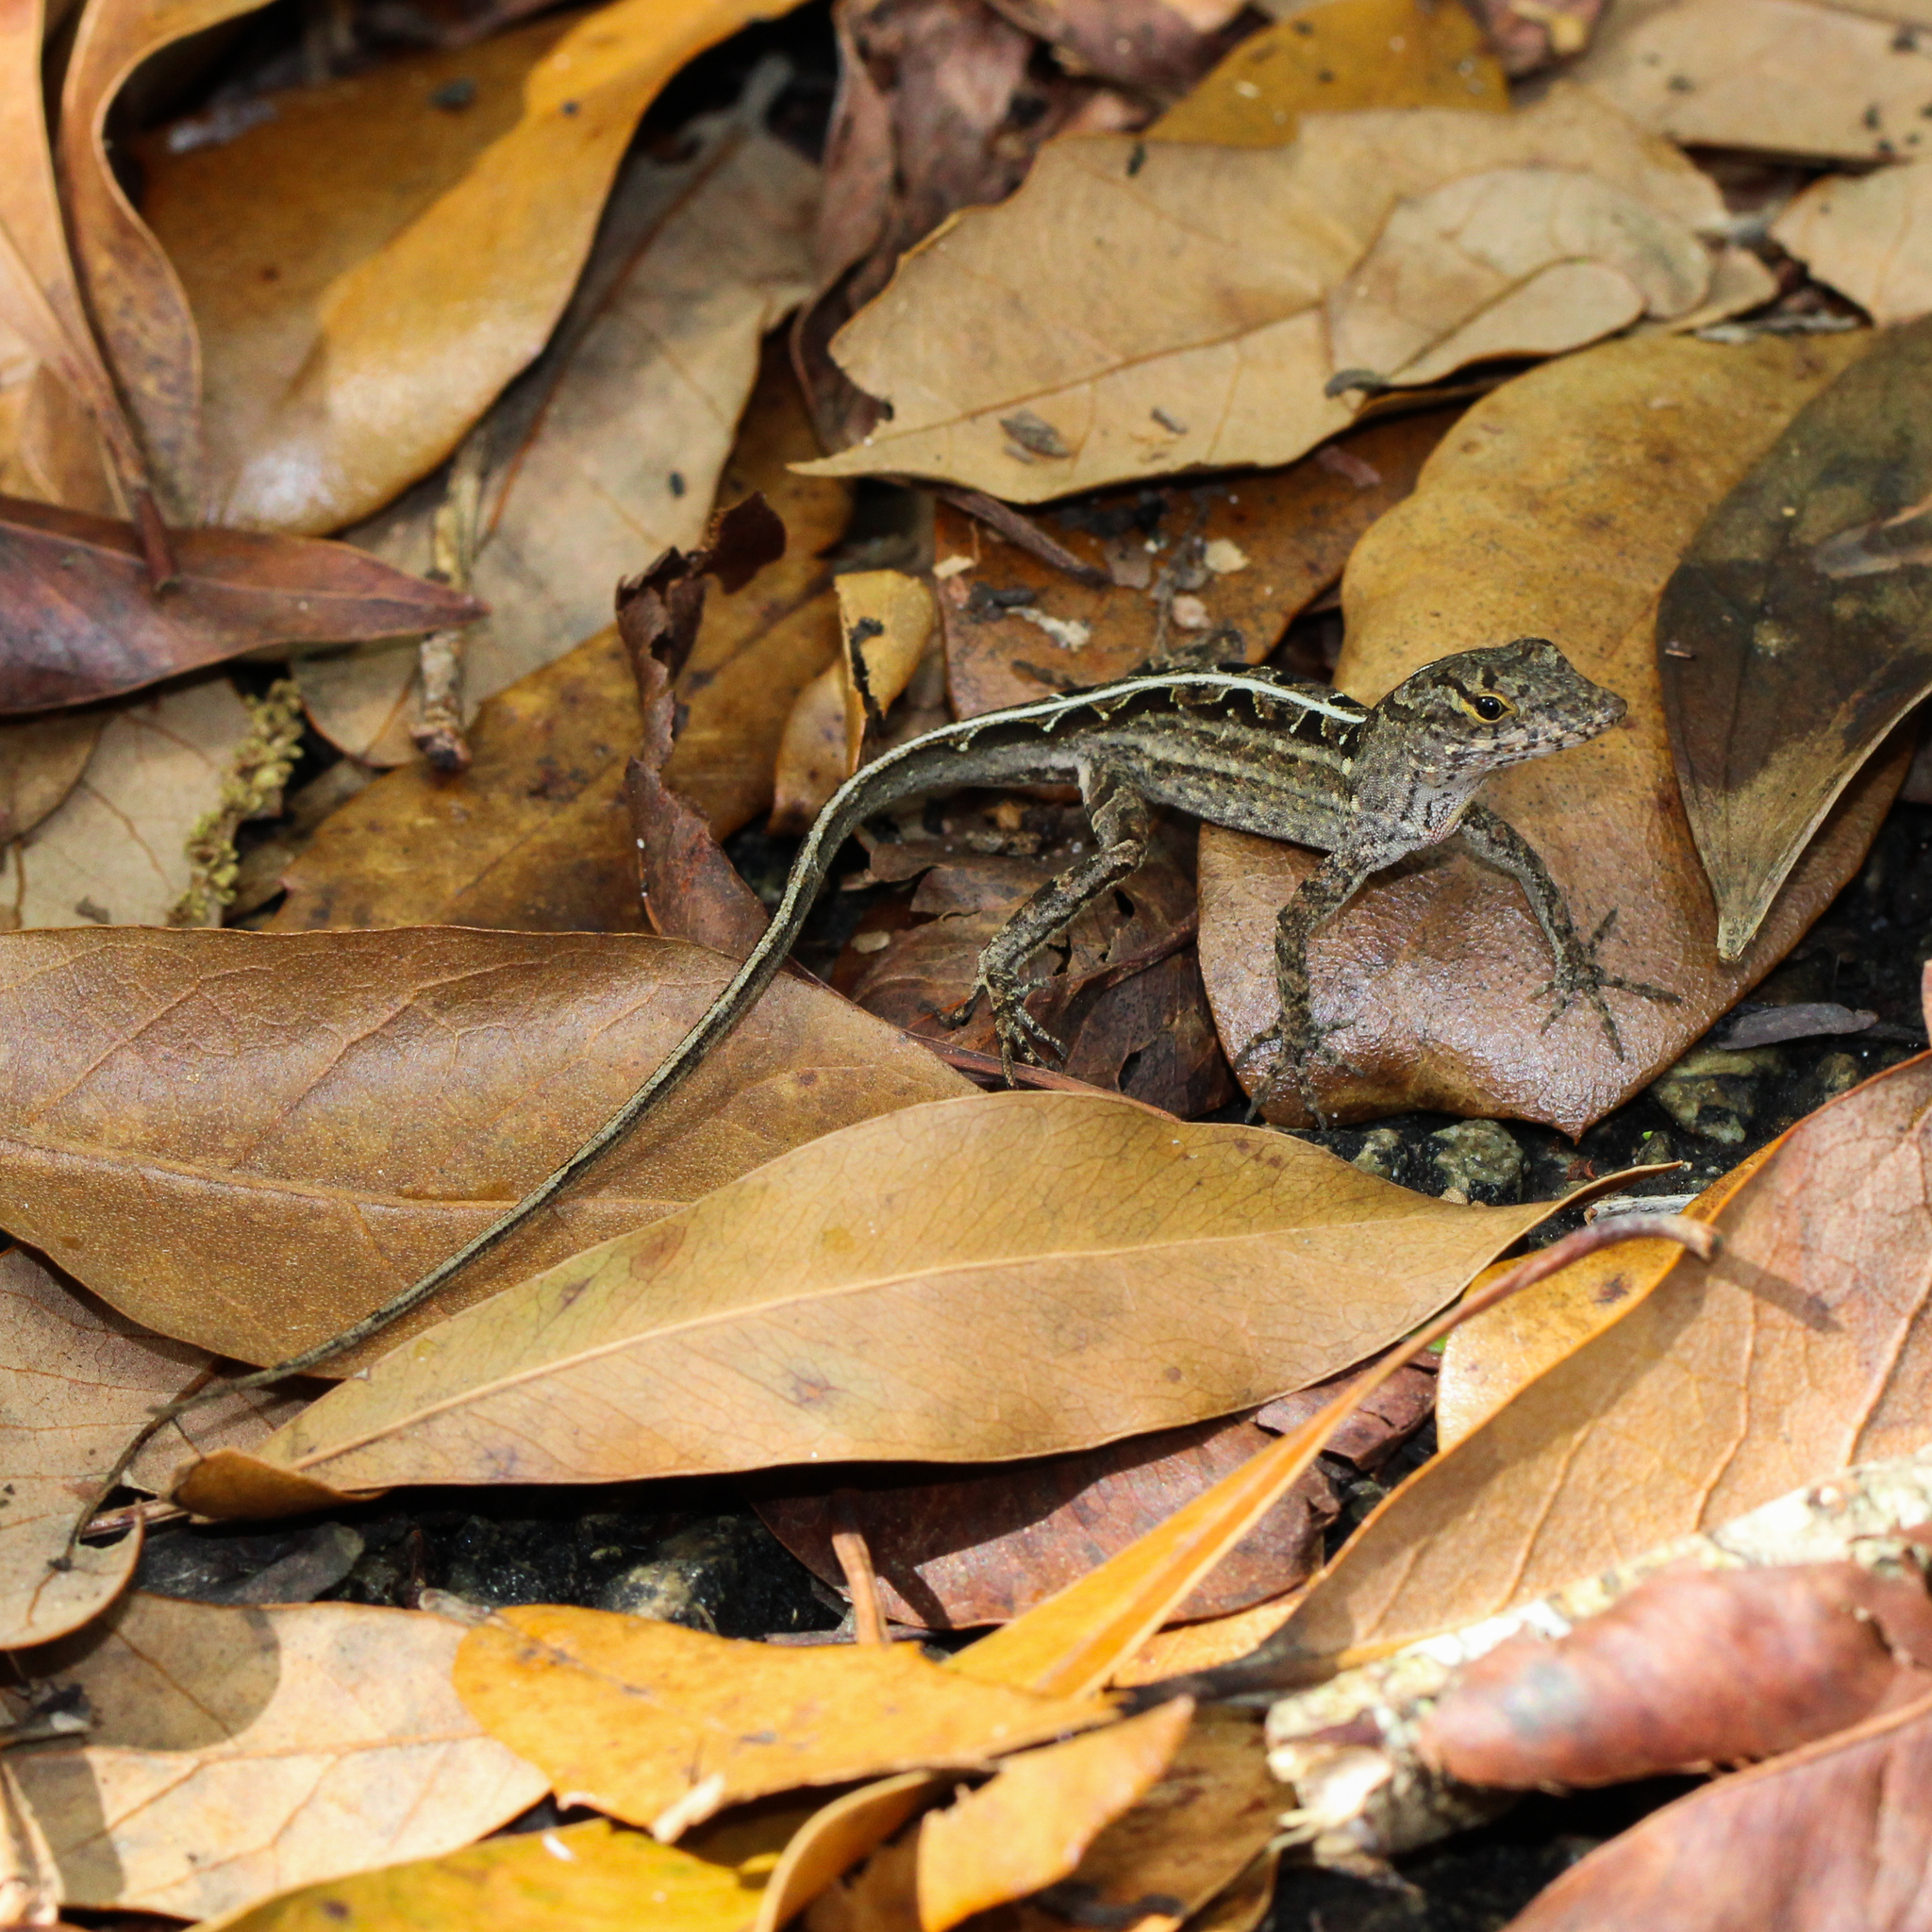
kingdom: Animalia
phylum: Chordata
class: Squamata
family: Dactyloidae
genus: Anolis
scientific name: Anolis sagrei
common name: Brown anole
